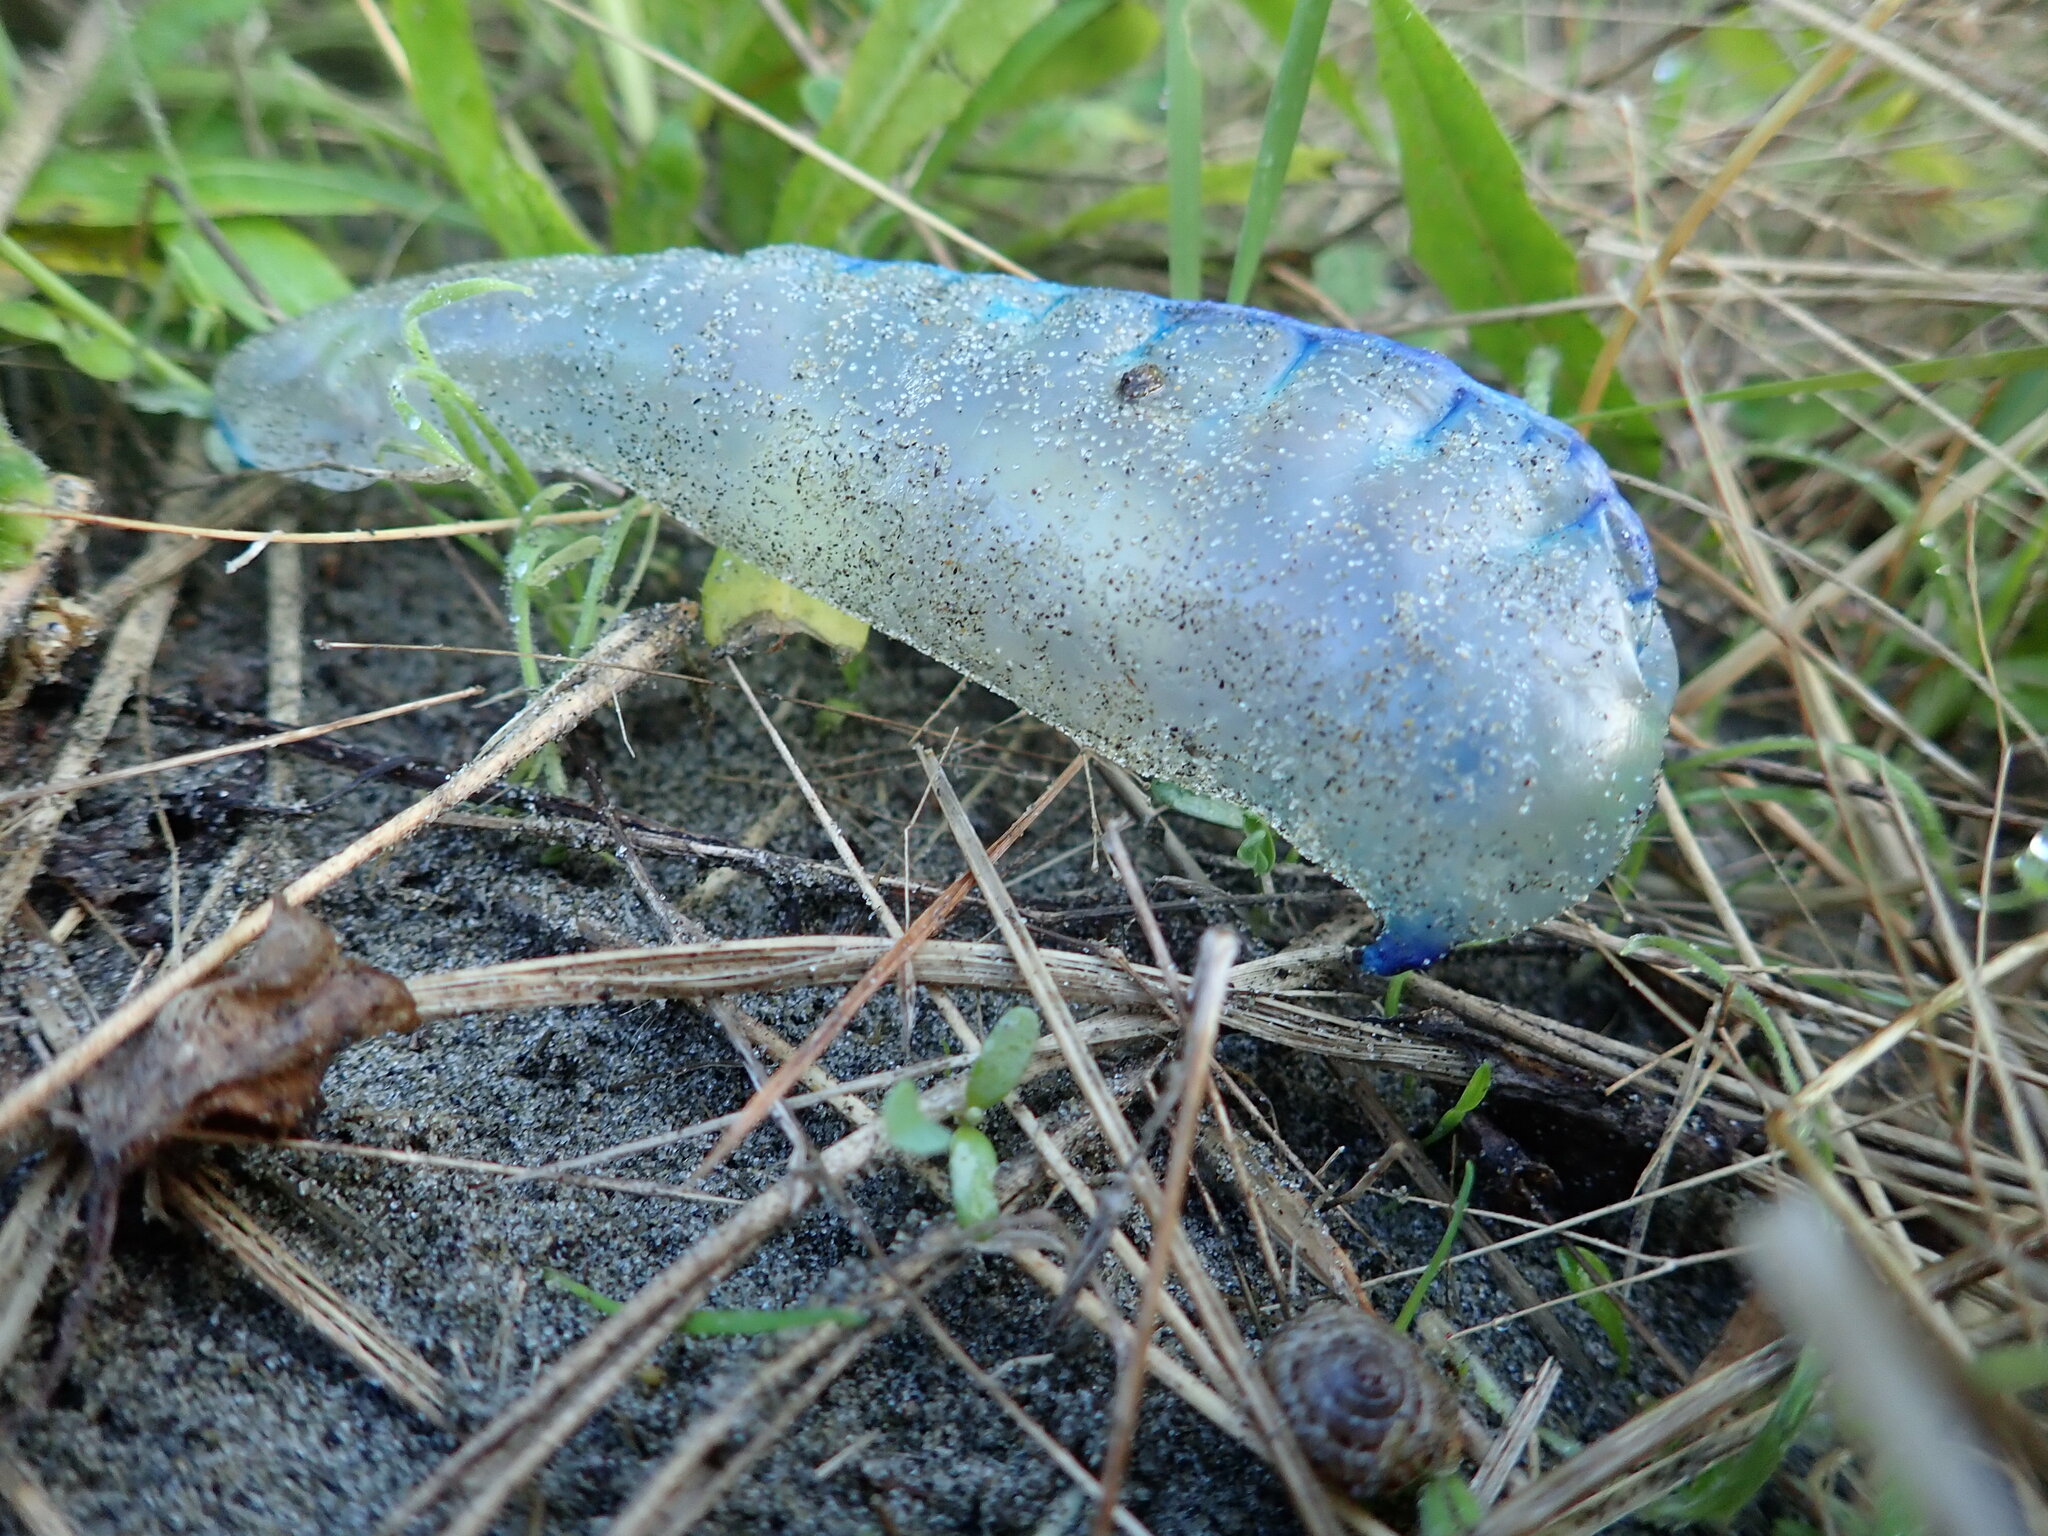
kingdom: Animalia
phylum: Cnidaria
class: Hydrozoa
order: Siphonophorae
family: Physaliidae
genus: Physalia
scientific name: Physalia physalis
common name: Portuguese man-of-war
